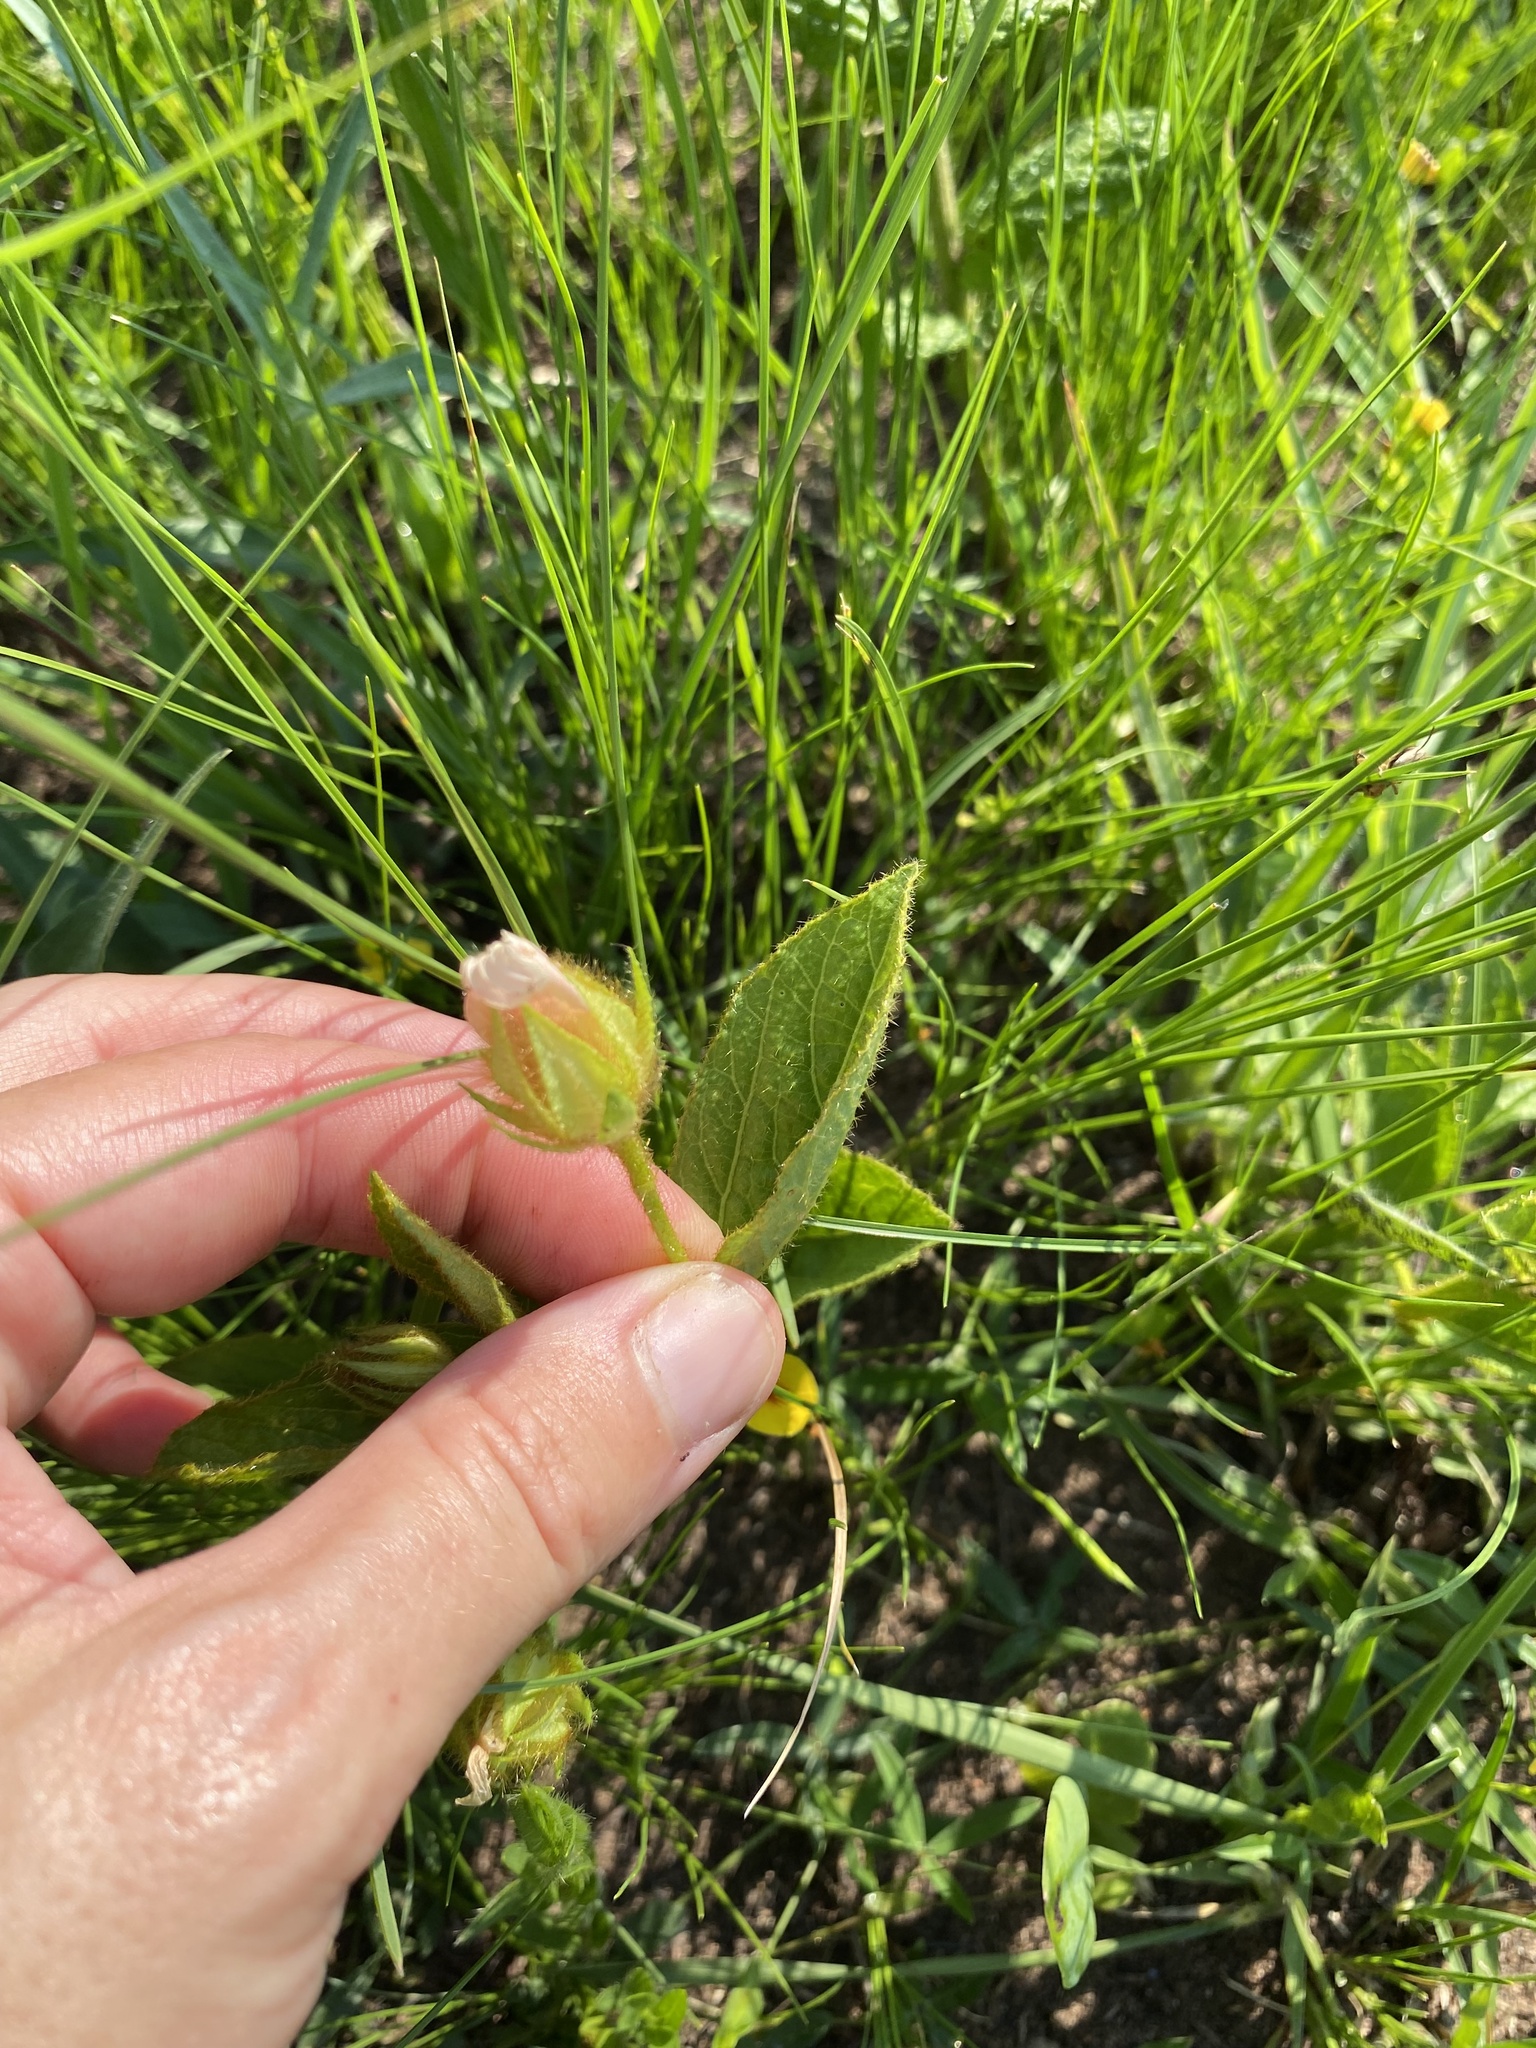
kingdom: Plantae
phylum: Tracheophyta
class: Magnoliopsida
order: Malvales
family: Malvaceae
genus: Hibiscus
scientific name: Hibiscus aethiopicus
